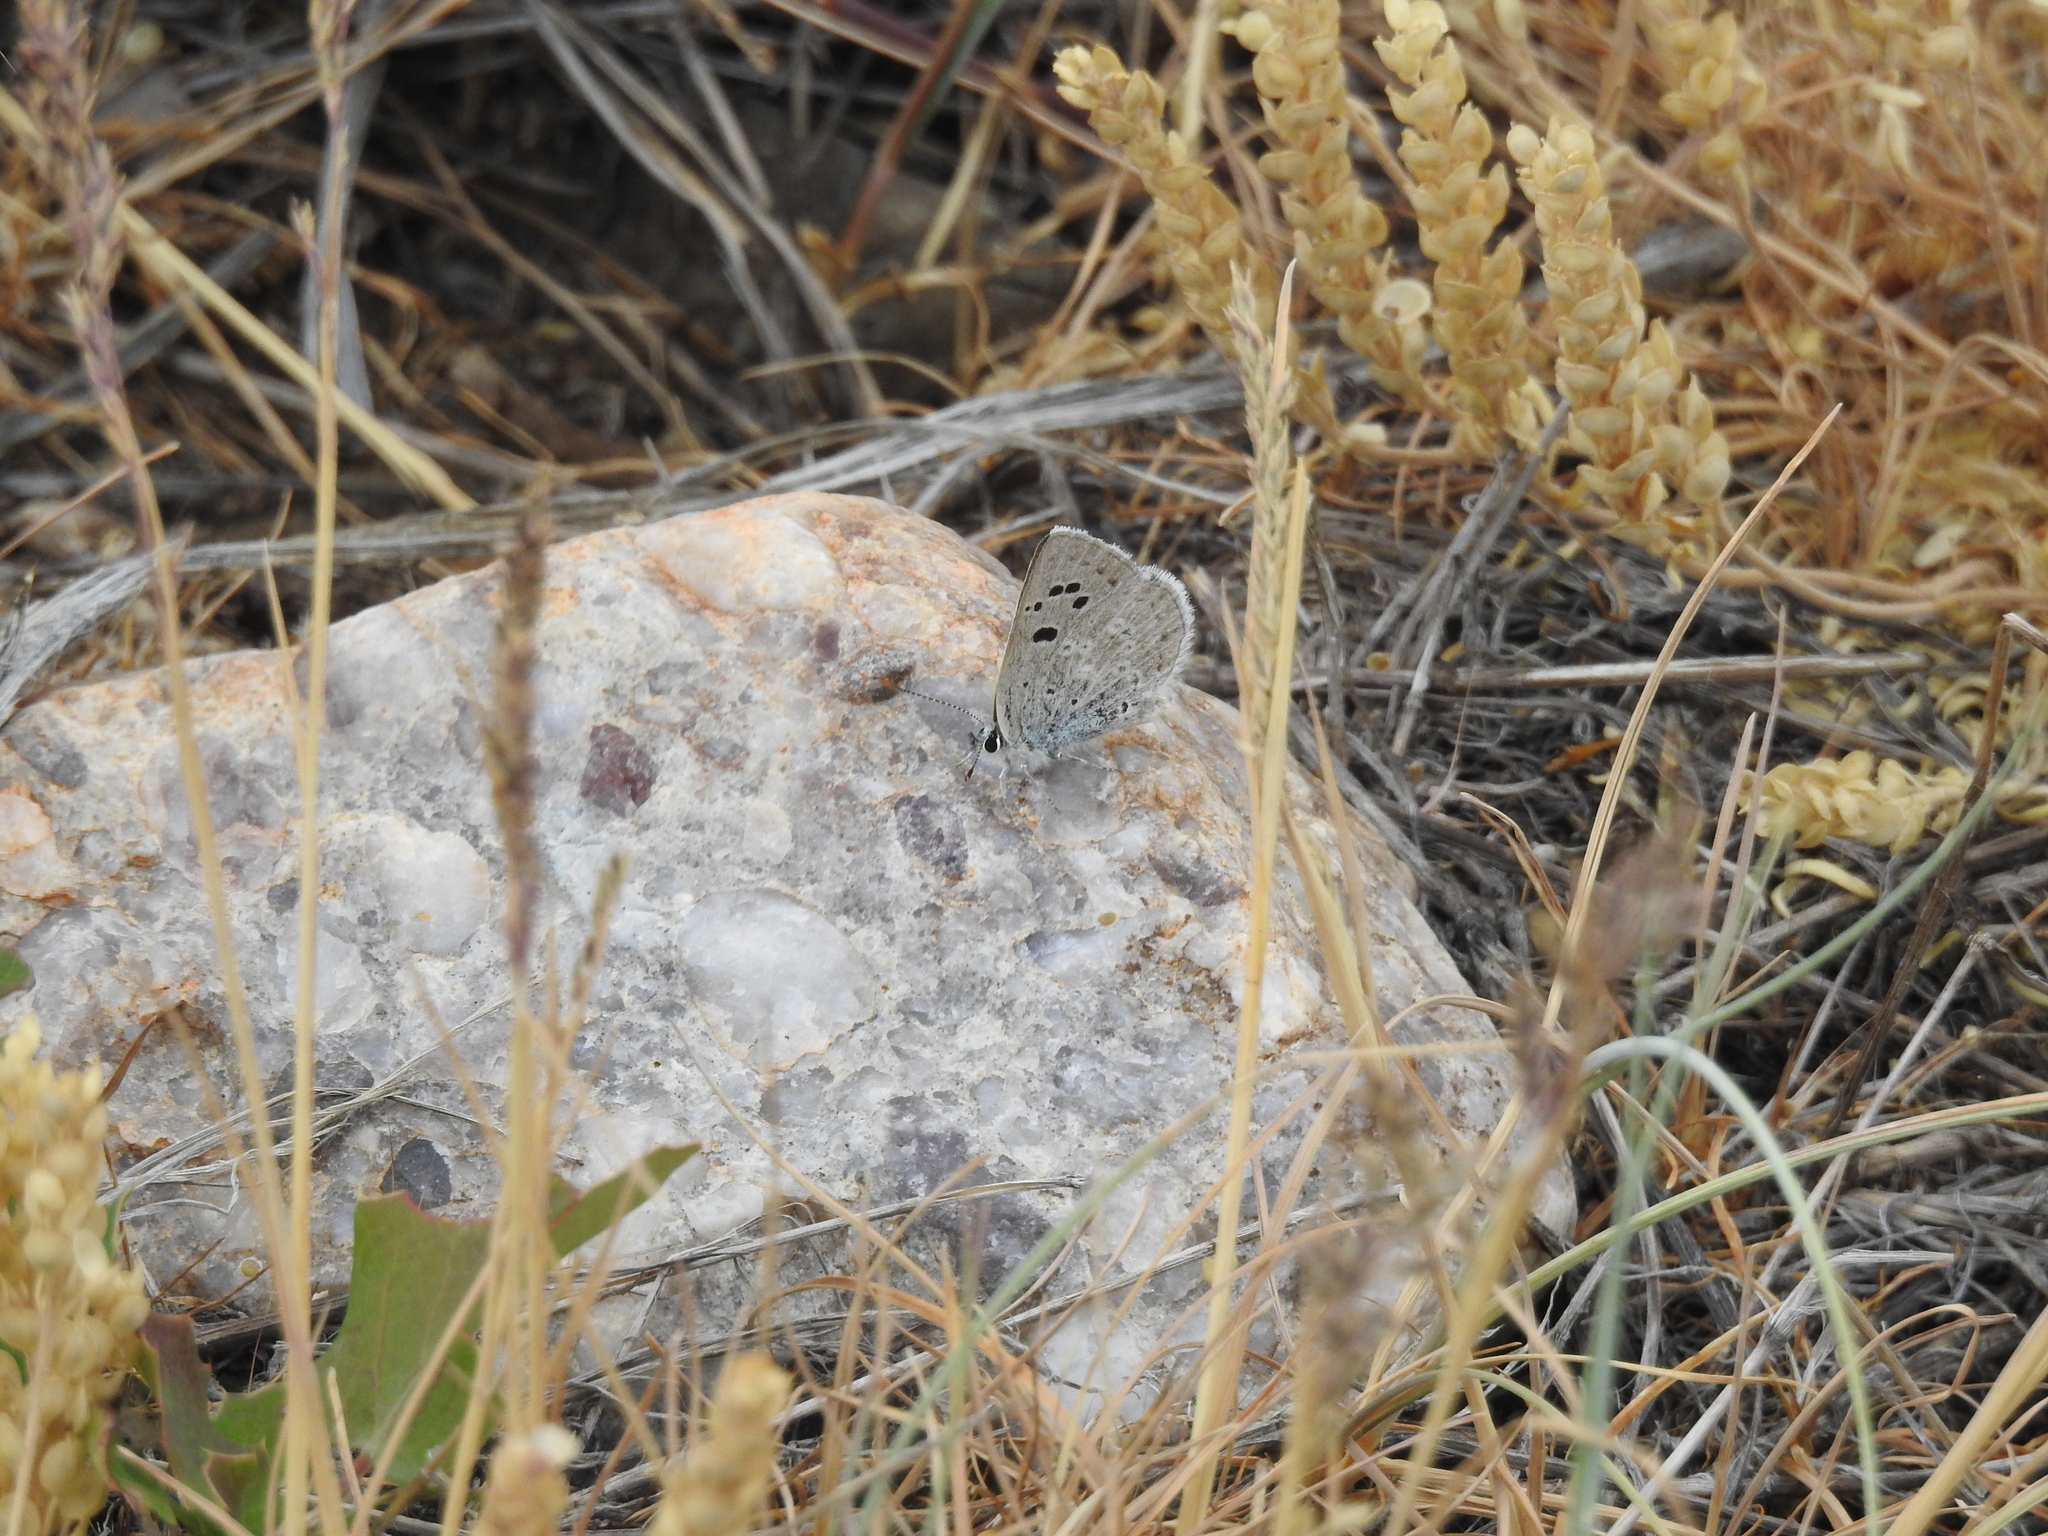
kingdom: Animalia
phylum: Arthropoda
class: Insecta
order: Lepidoptera
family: Lycaenidae
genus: Icaricia
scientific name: Icaricia icarioides
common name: Boisduval's blue
